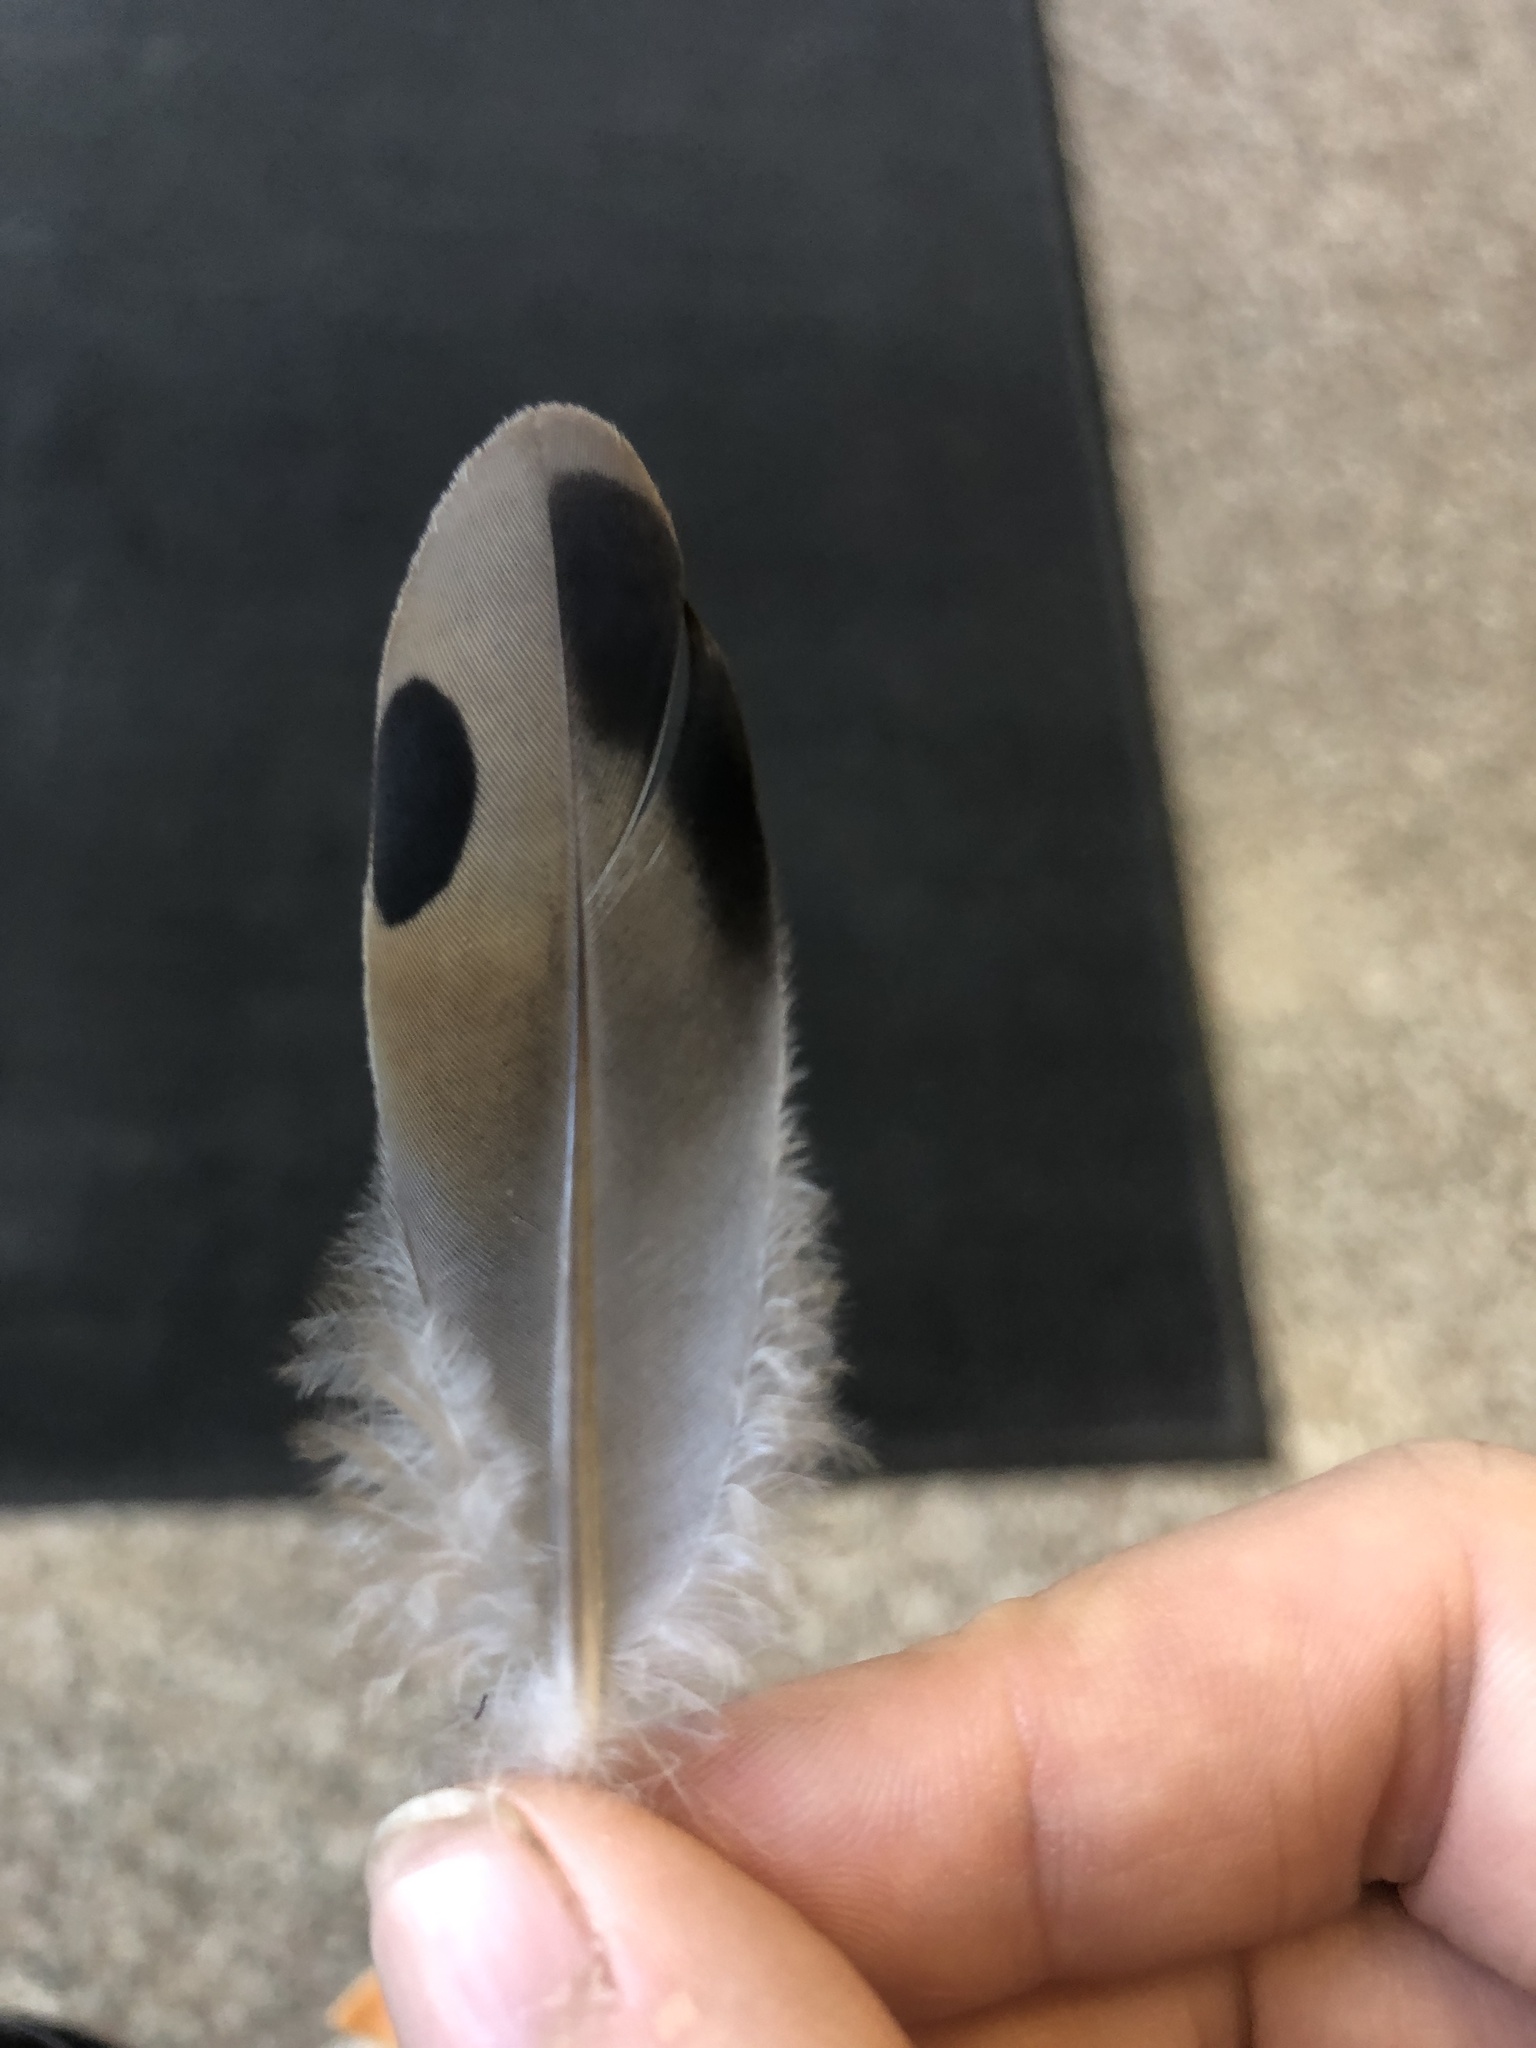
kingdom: Animalia
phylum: Chordata
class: Aves
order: Columbiformes
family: Columbidae
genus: Zenaida
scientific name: Zenaida macroura
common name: Mourning dove
